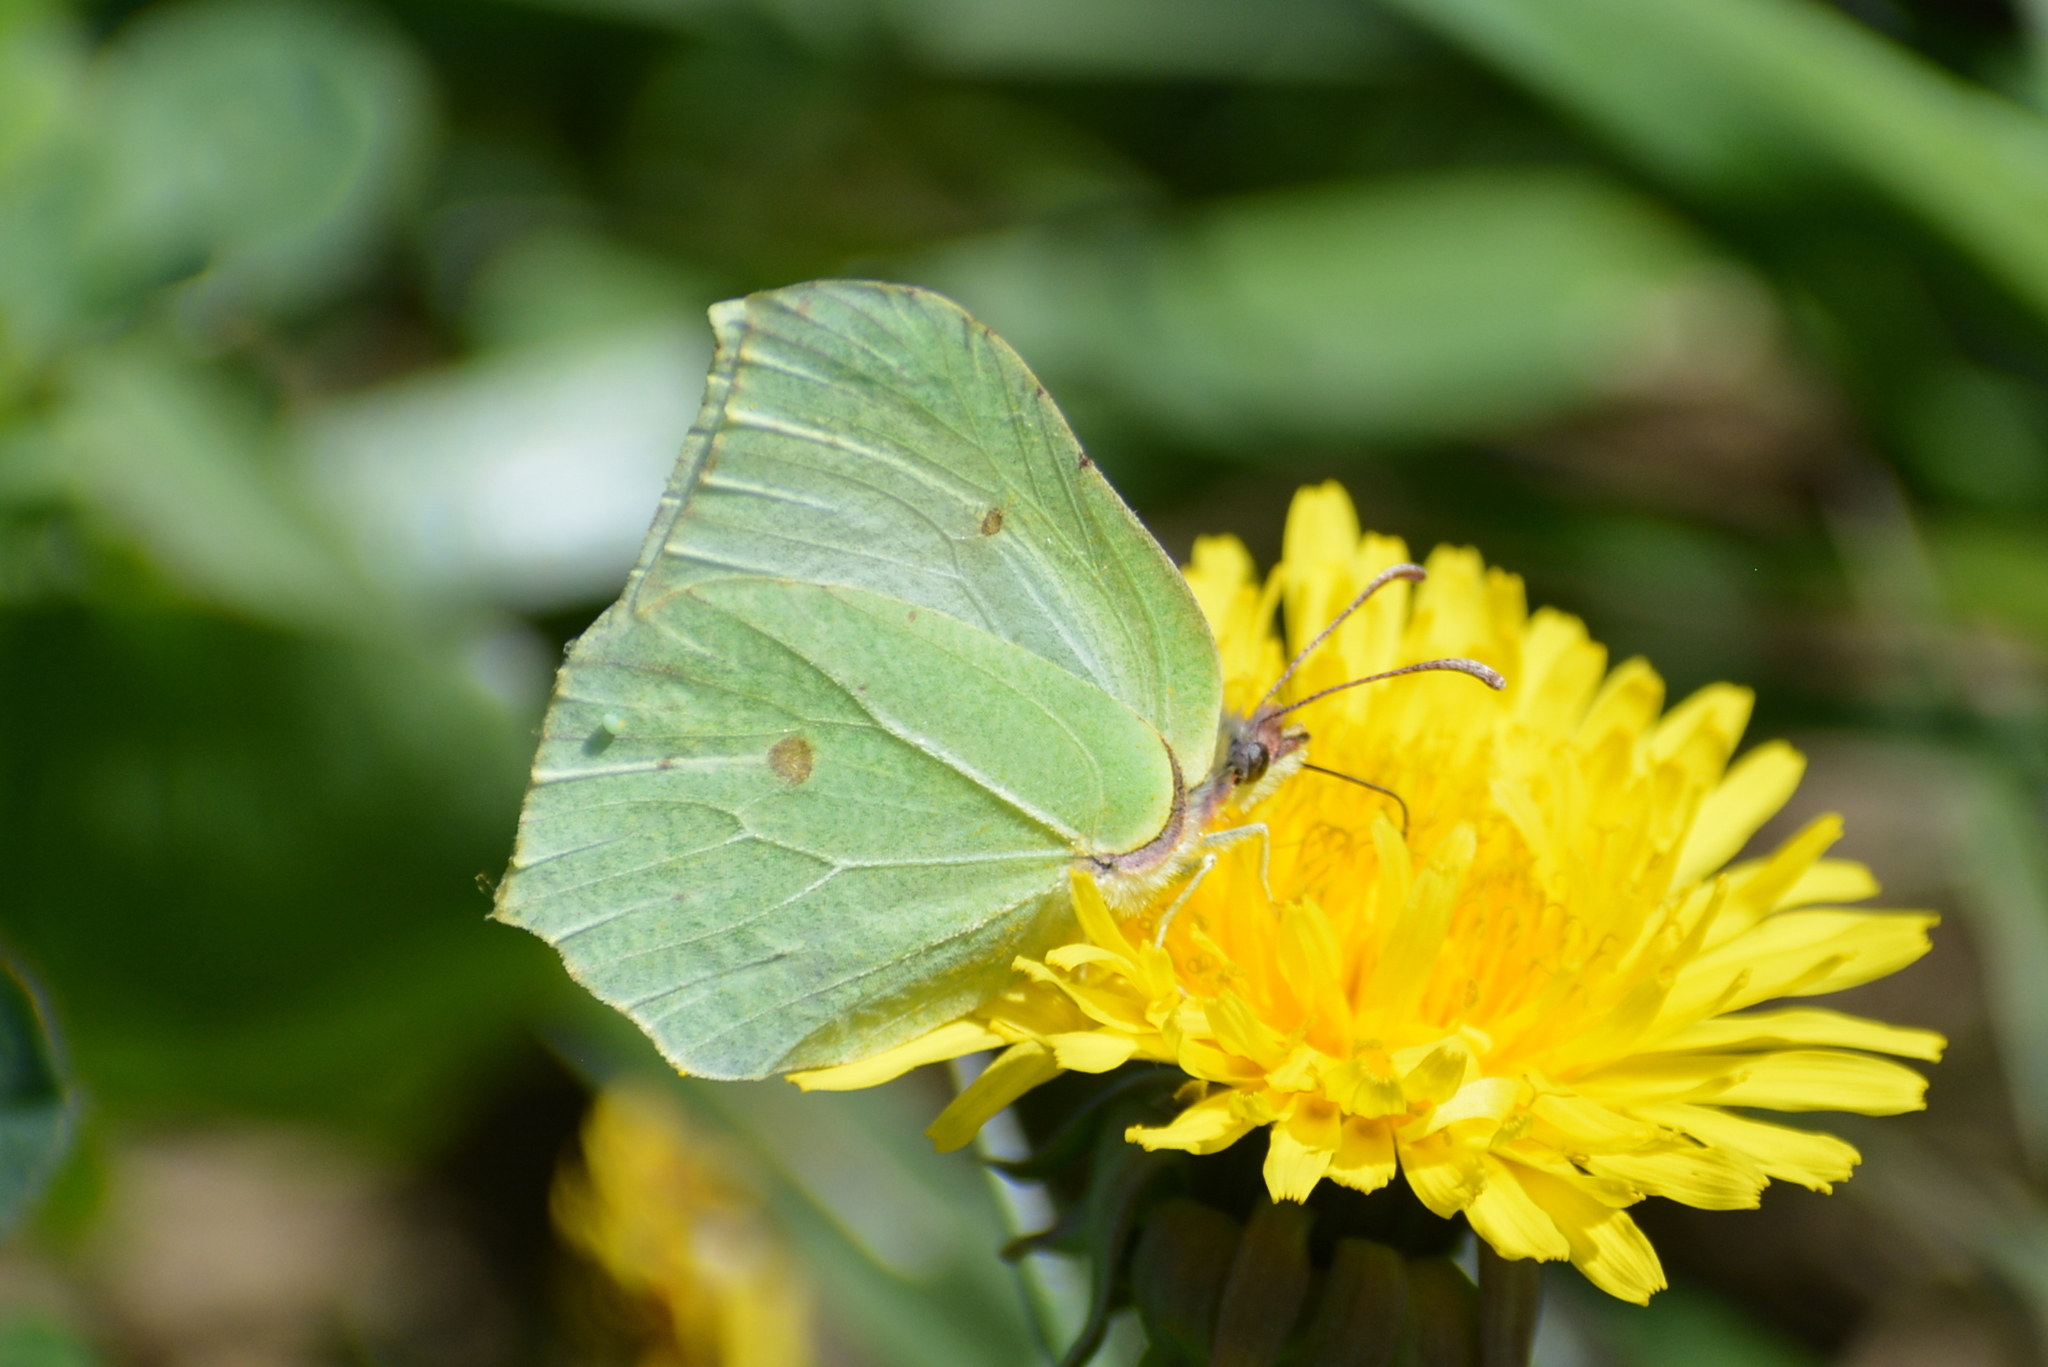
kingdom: Animalia
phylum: Arthropoda
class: Insecta
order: Lepidoptera
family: Pieridae
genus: Gonepteryx
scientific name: Gonepteryx rhamni
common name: Brimstone
